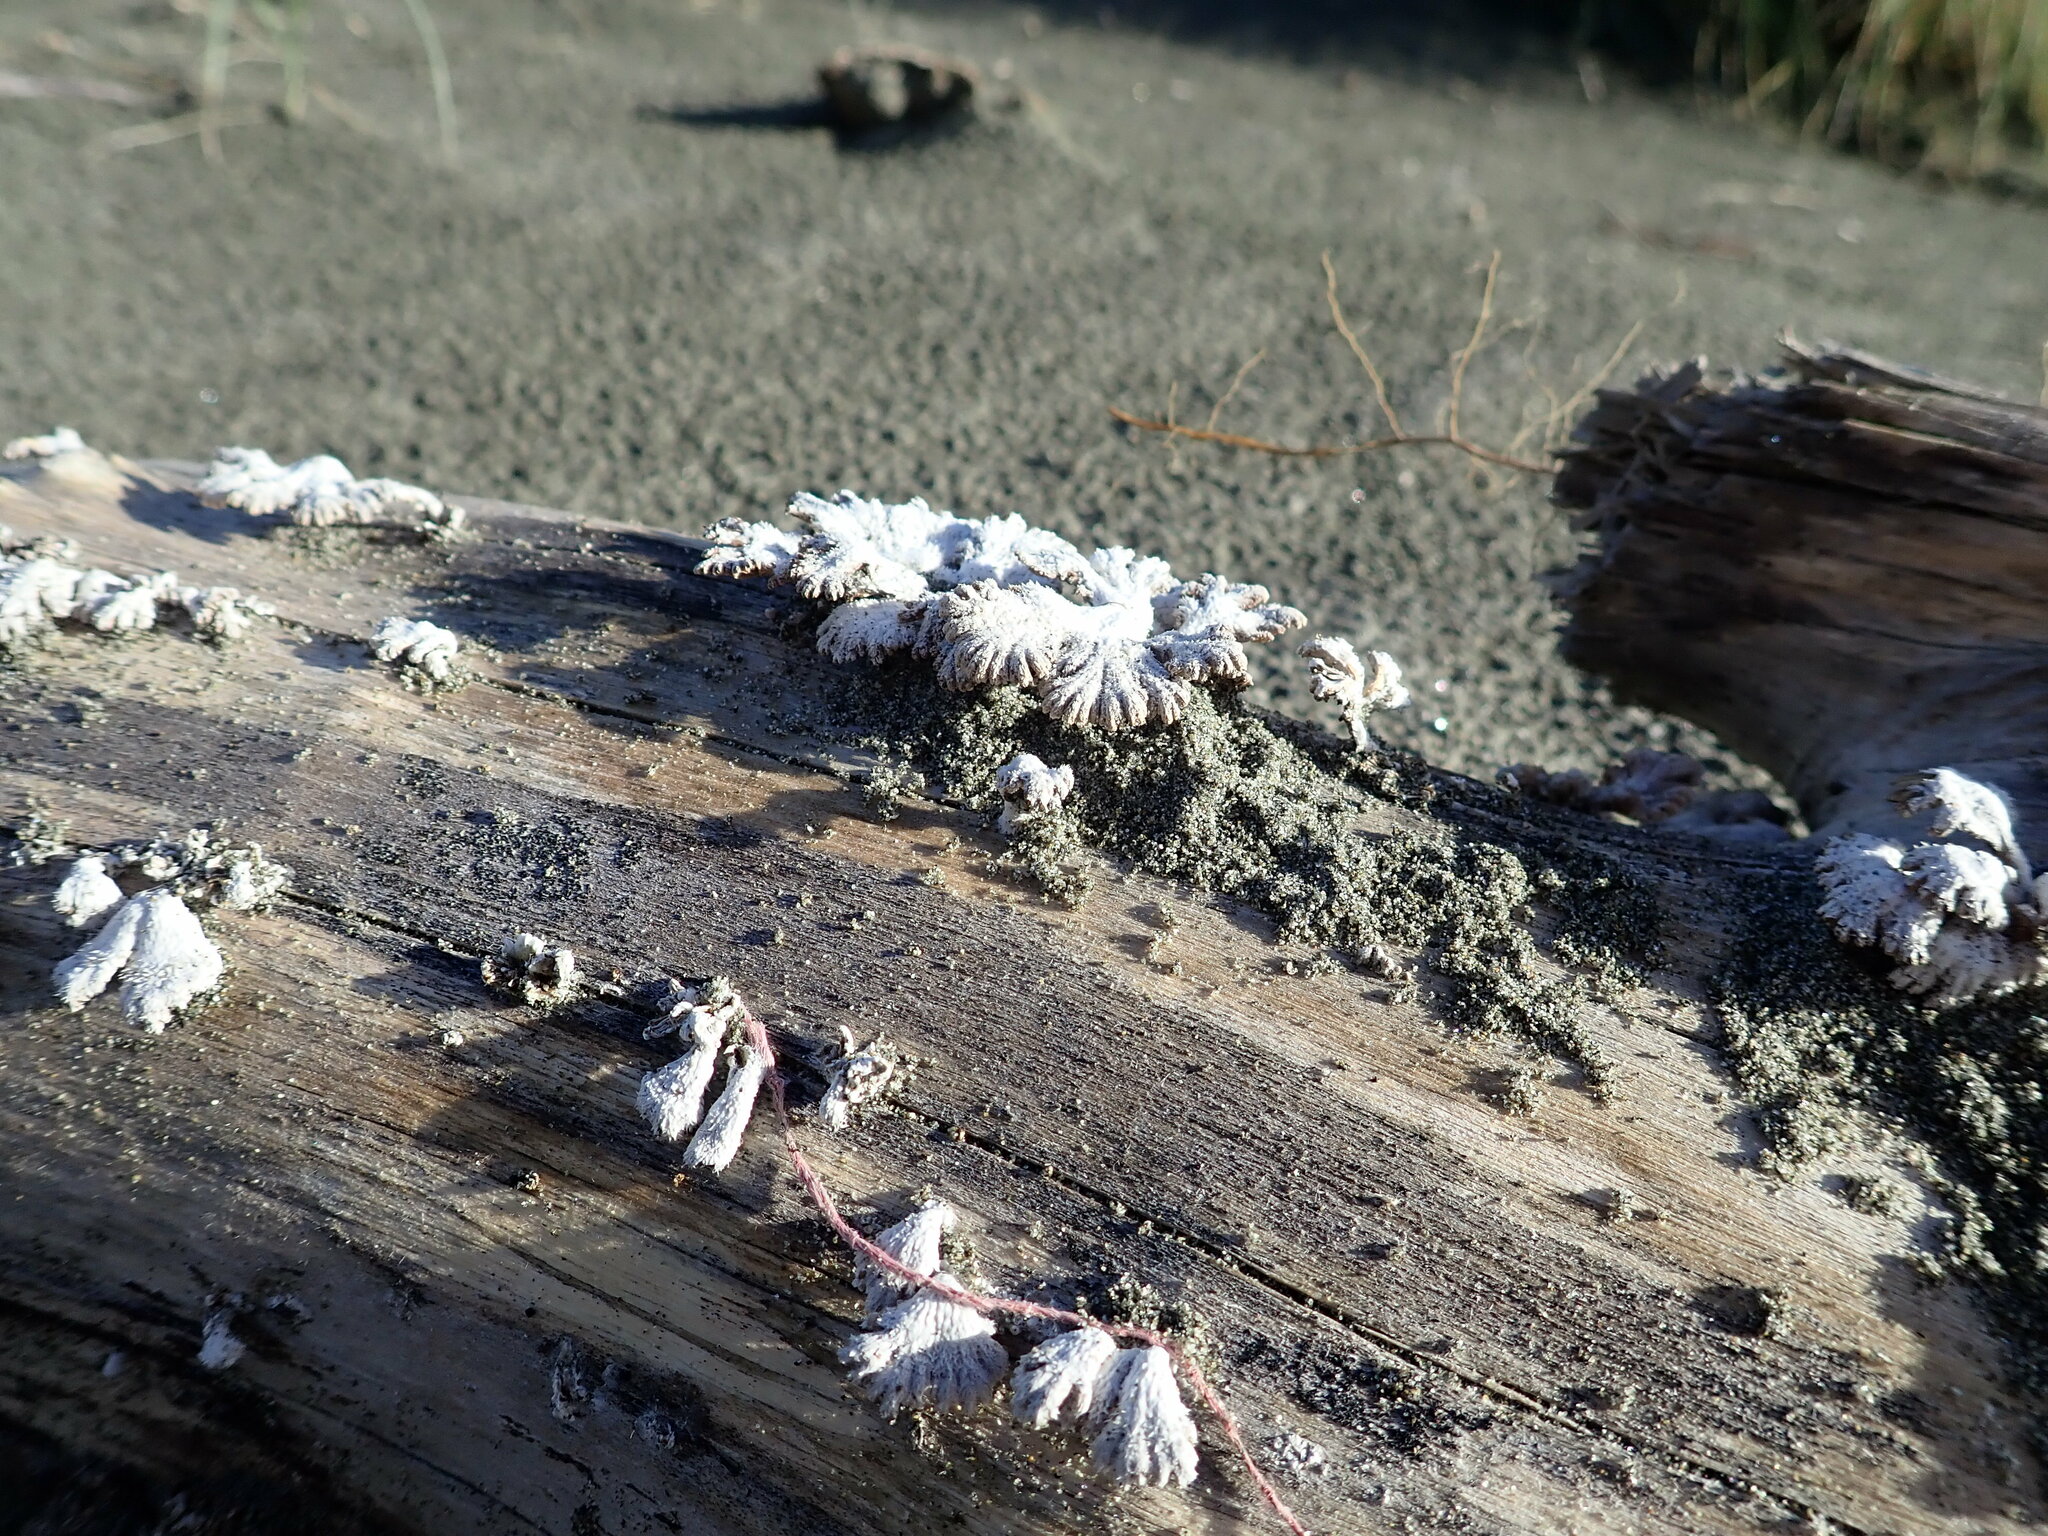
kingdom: Fungi
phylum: Basidiomycota
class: Agaricomycetes
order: Agaricales
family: Schizophyllaceae
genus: Schizophyllum
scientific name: Schizophyllum commune
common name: Common porecrust
